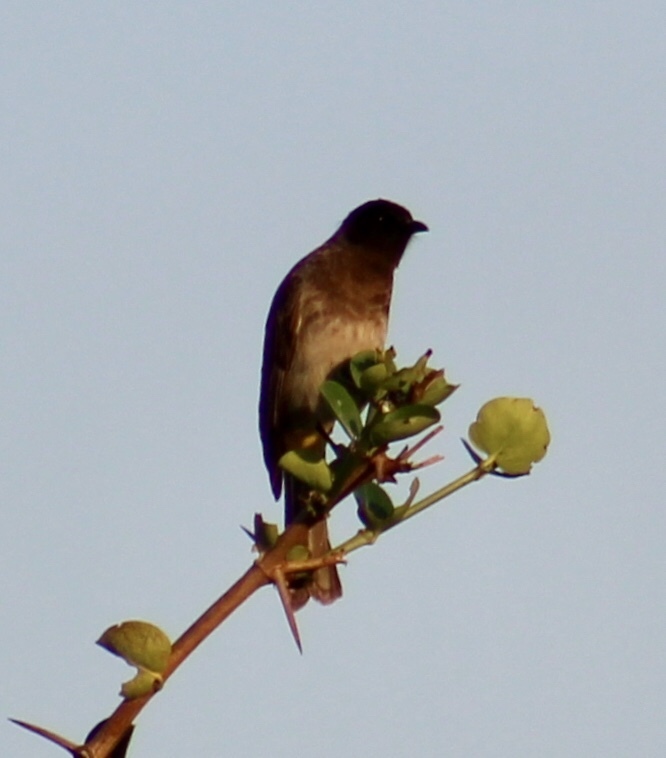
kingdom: Animalia
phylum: Chordata
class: Aves
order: Passeriformes
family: Pycnonotidae
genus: Pycnonotus
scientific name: Pycnonotus barbatus
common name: Common bulbul
